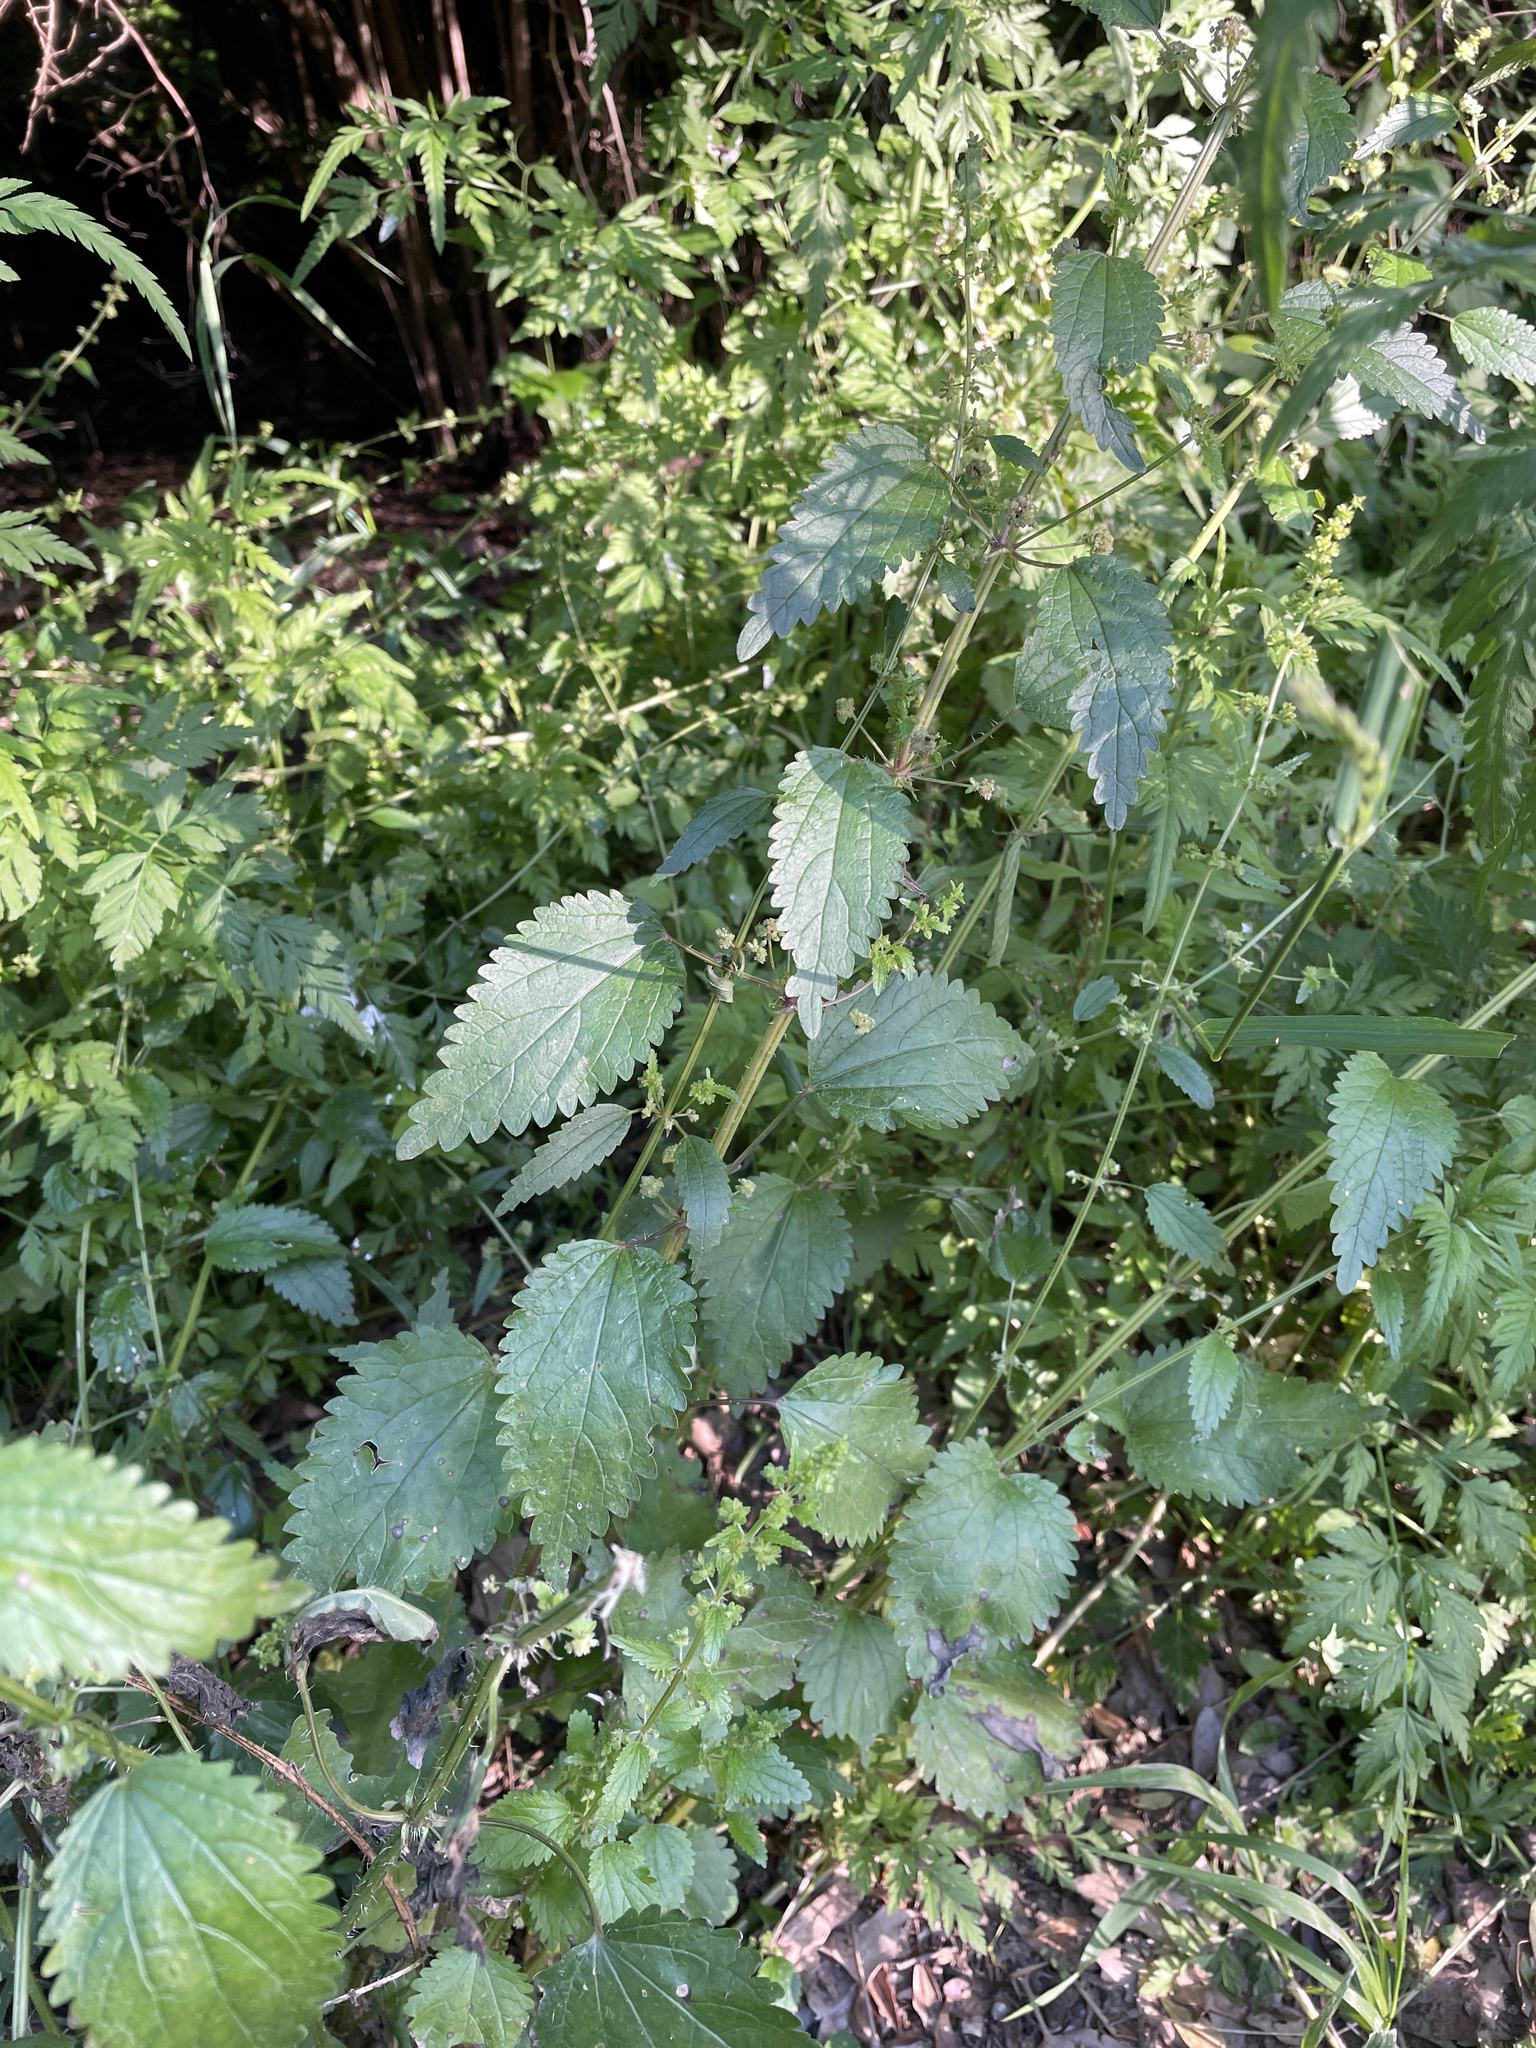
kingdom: Plantae
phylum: Tracheophyta
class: Magnoliopsida
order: Rosales
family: Urticaceae
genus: Urtica
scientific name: Urtica chamaedryoides
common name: Heart-leaf nettle
